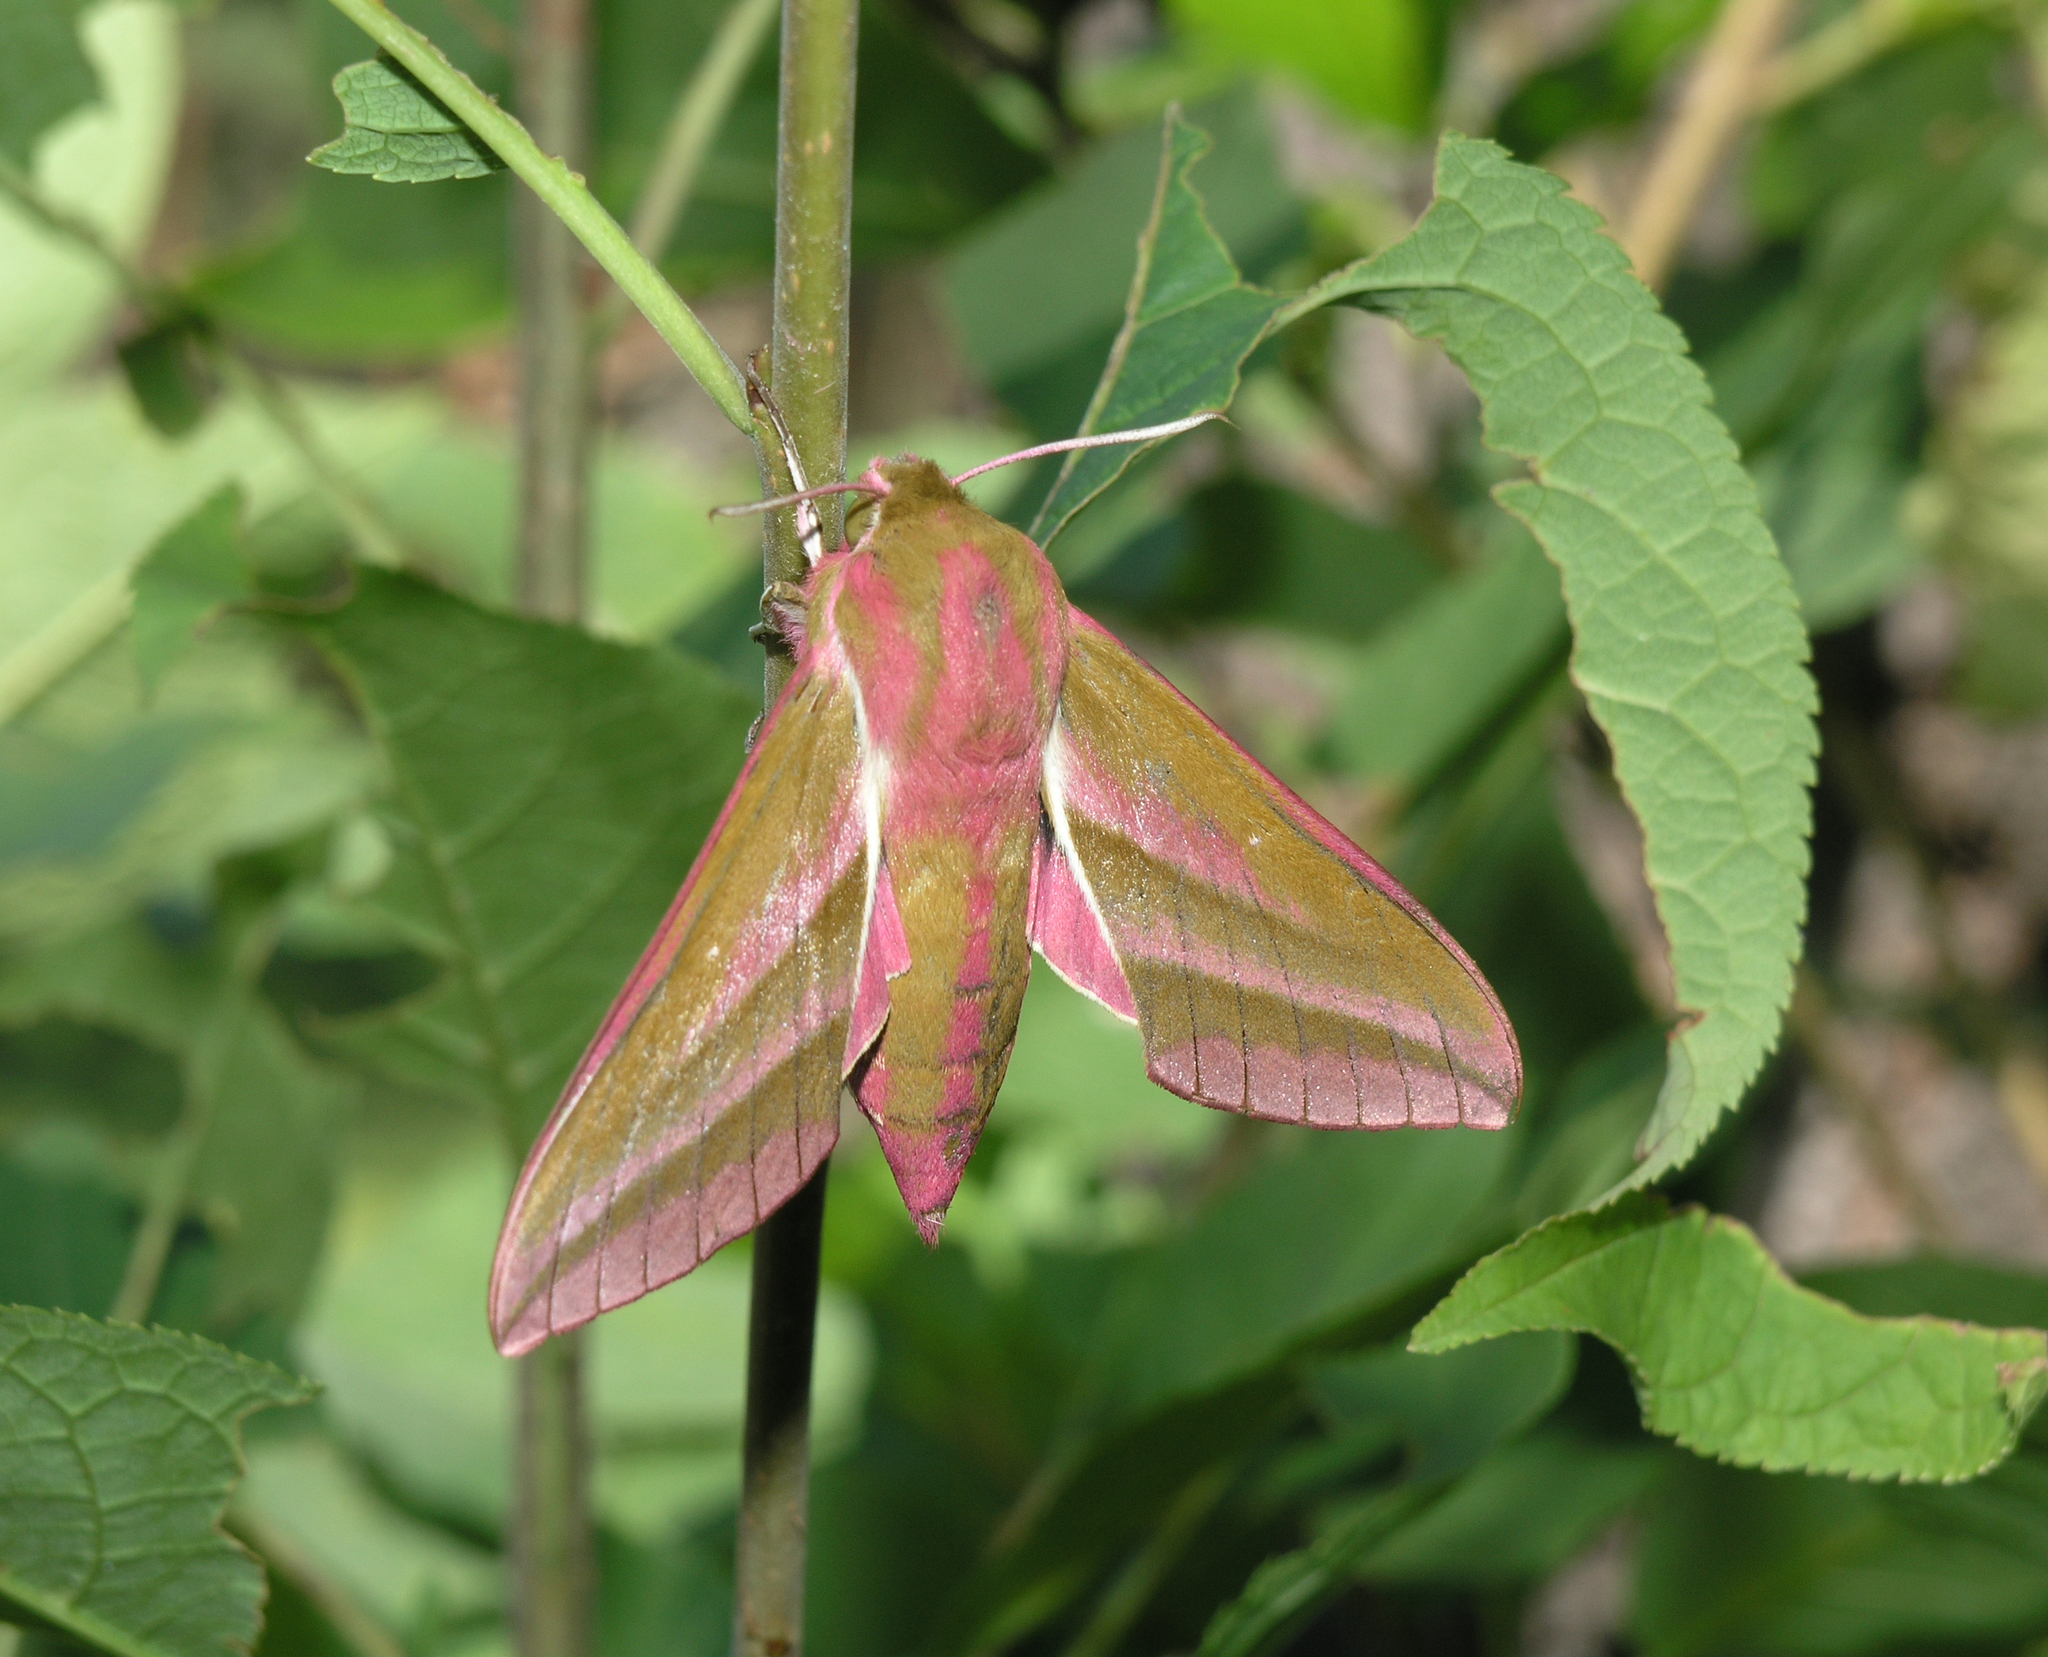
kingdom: Animalia
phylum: Arthropoda
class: Insecta
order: Lepidoptera
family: Sphingidae
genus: Deilephila
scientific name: Deilephila elpenor
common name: Elephant hawk-moth
